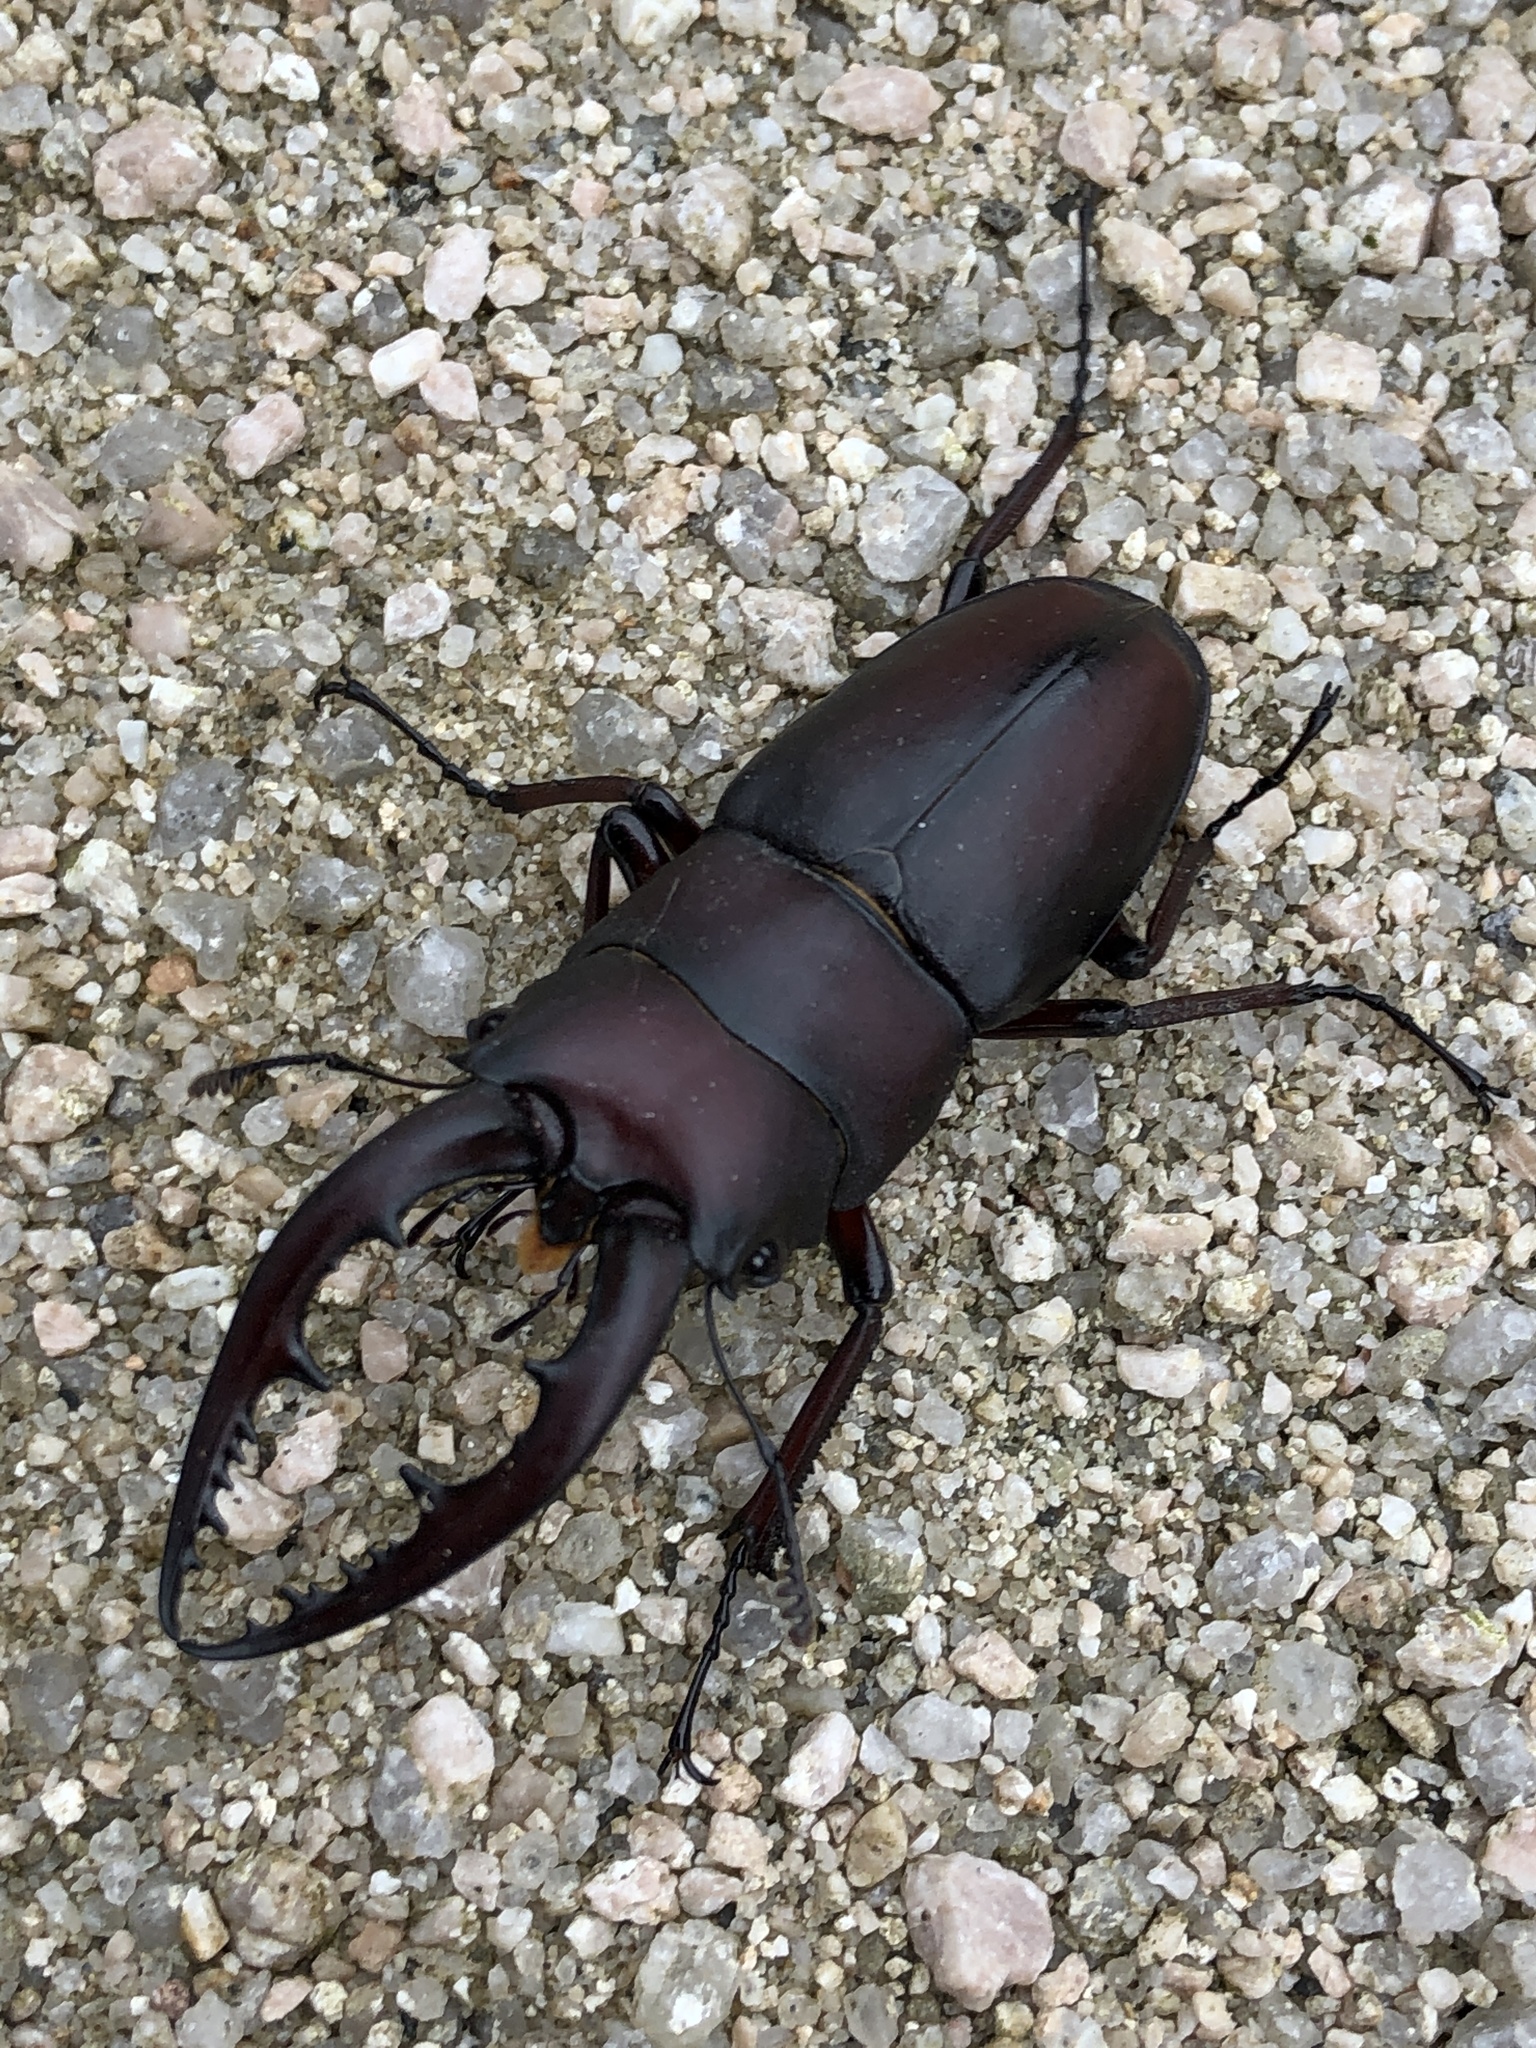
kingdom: Animalia
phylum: Arthropoda
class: Insecta
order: Coleoptera
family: Lucanidae
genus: Prosopocoilus
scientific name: Prosopocoilus inclinatus
